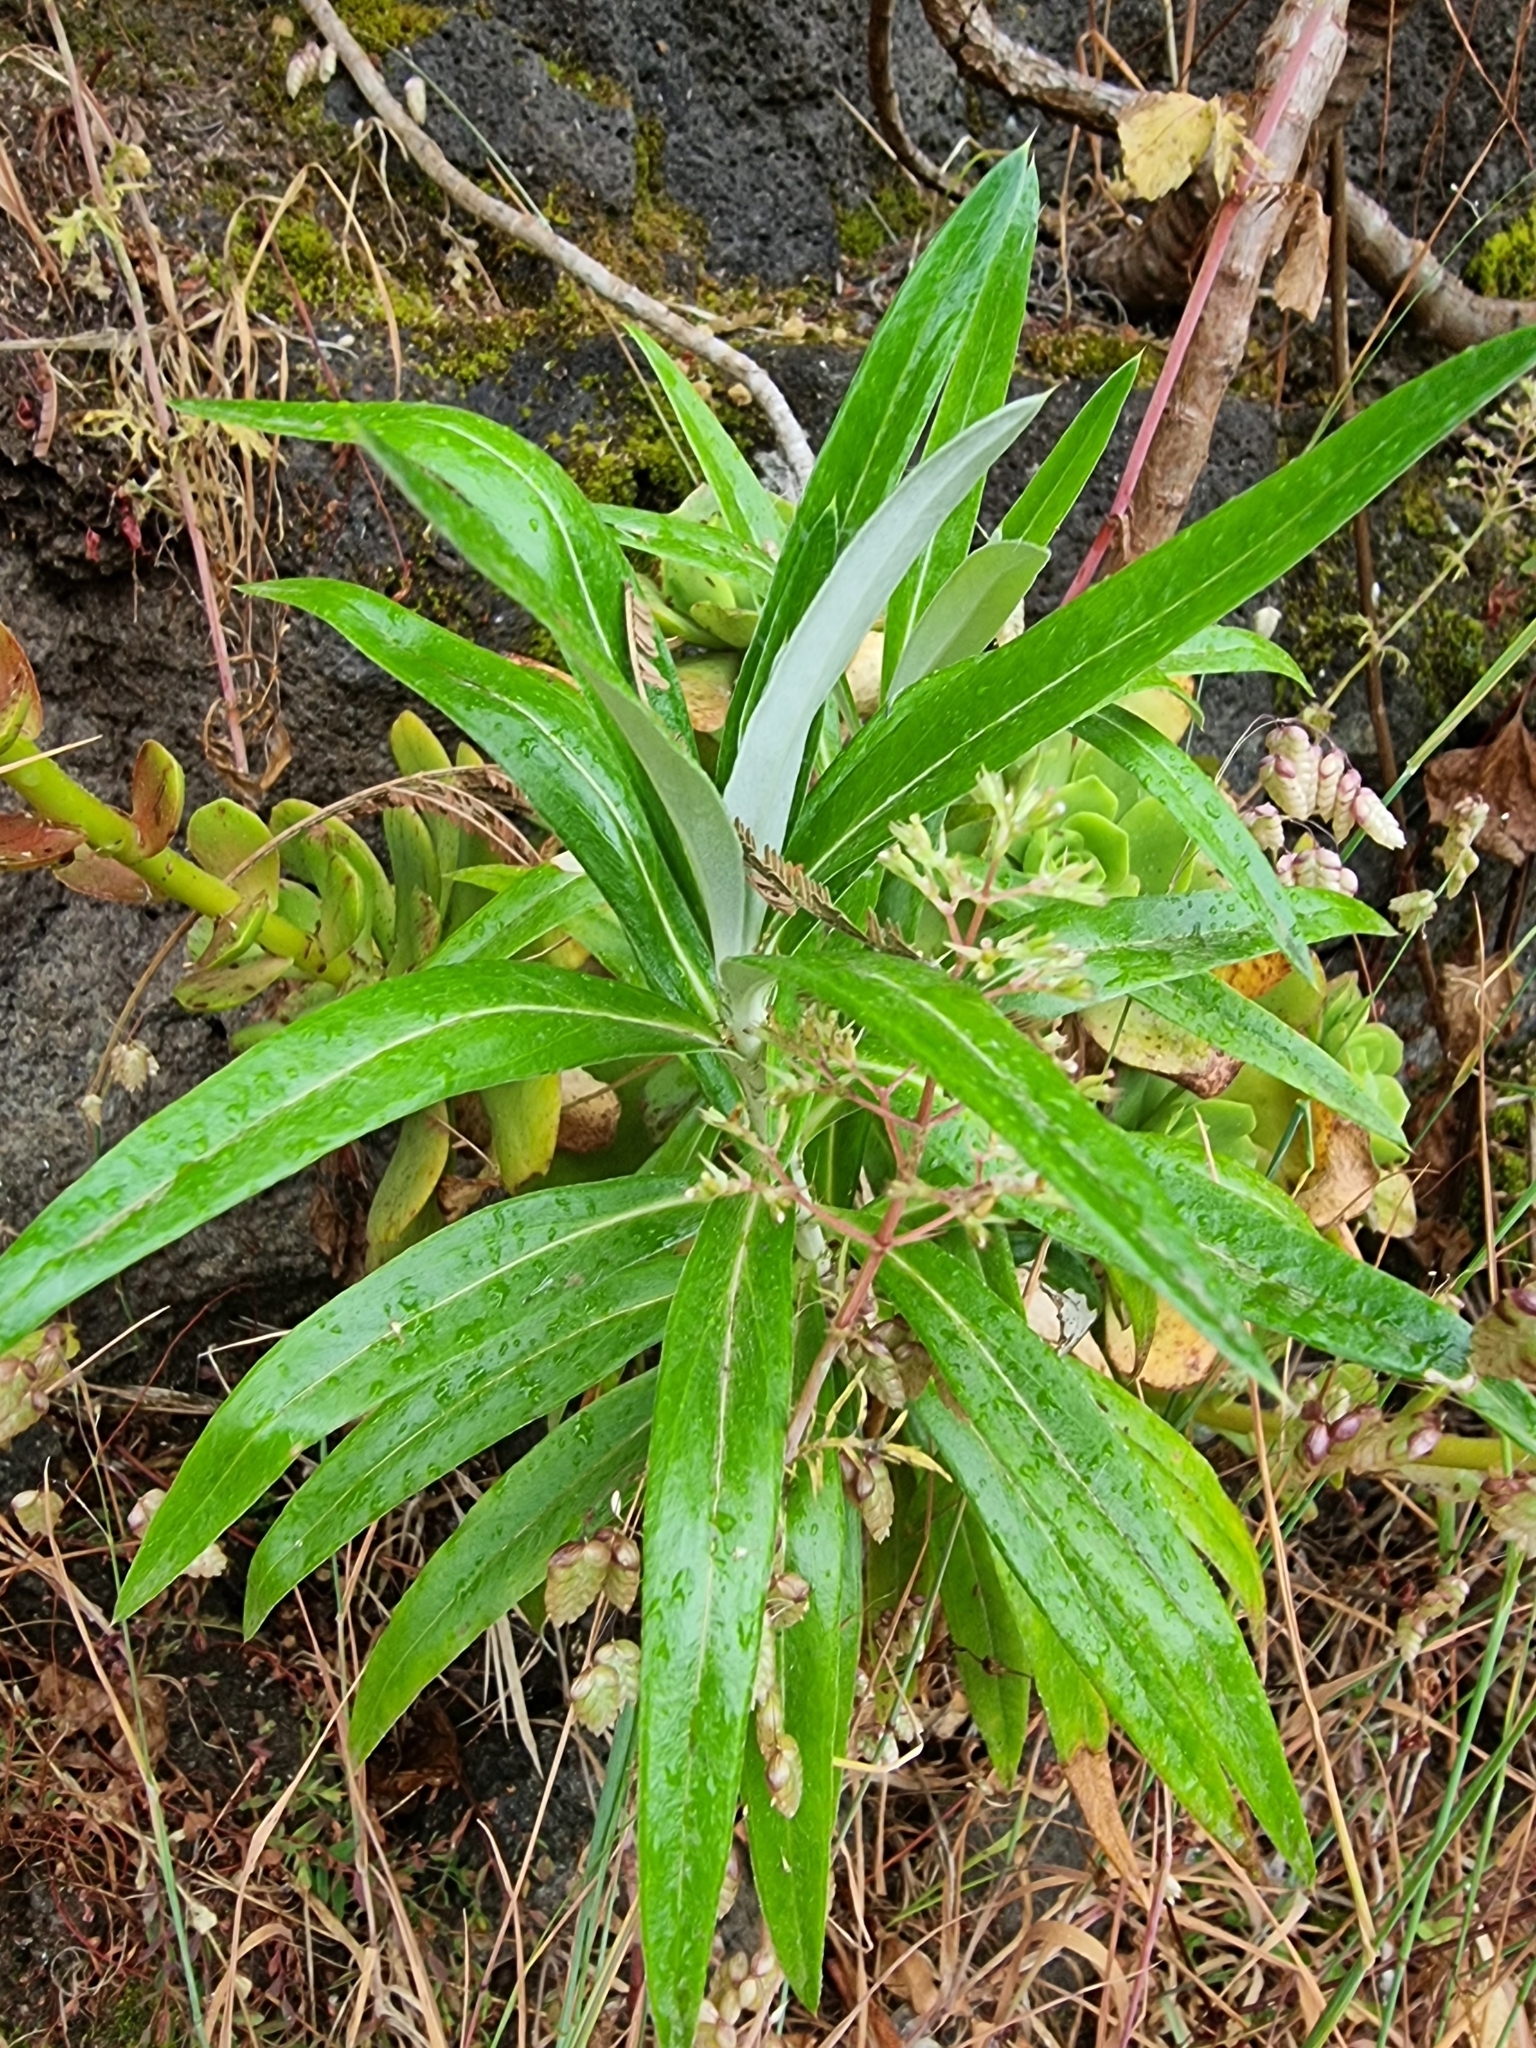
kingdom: Plantae
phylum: Tracheophyta
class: Magnoliopsida
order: Asterales
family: Asteraceae
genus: Carlina
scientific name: Carlina salicifolia
